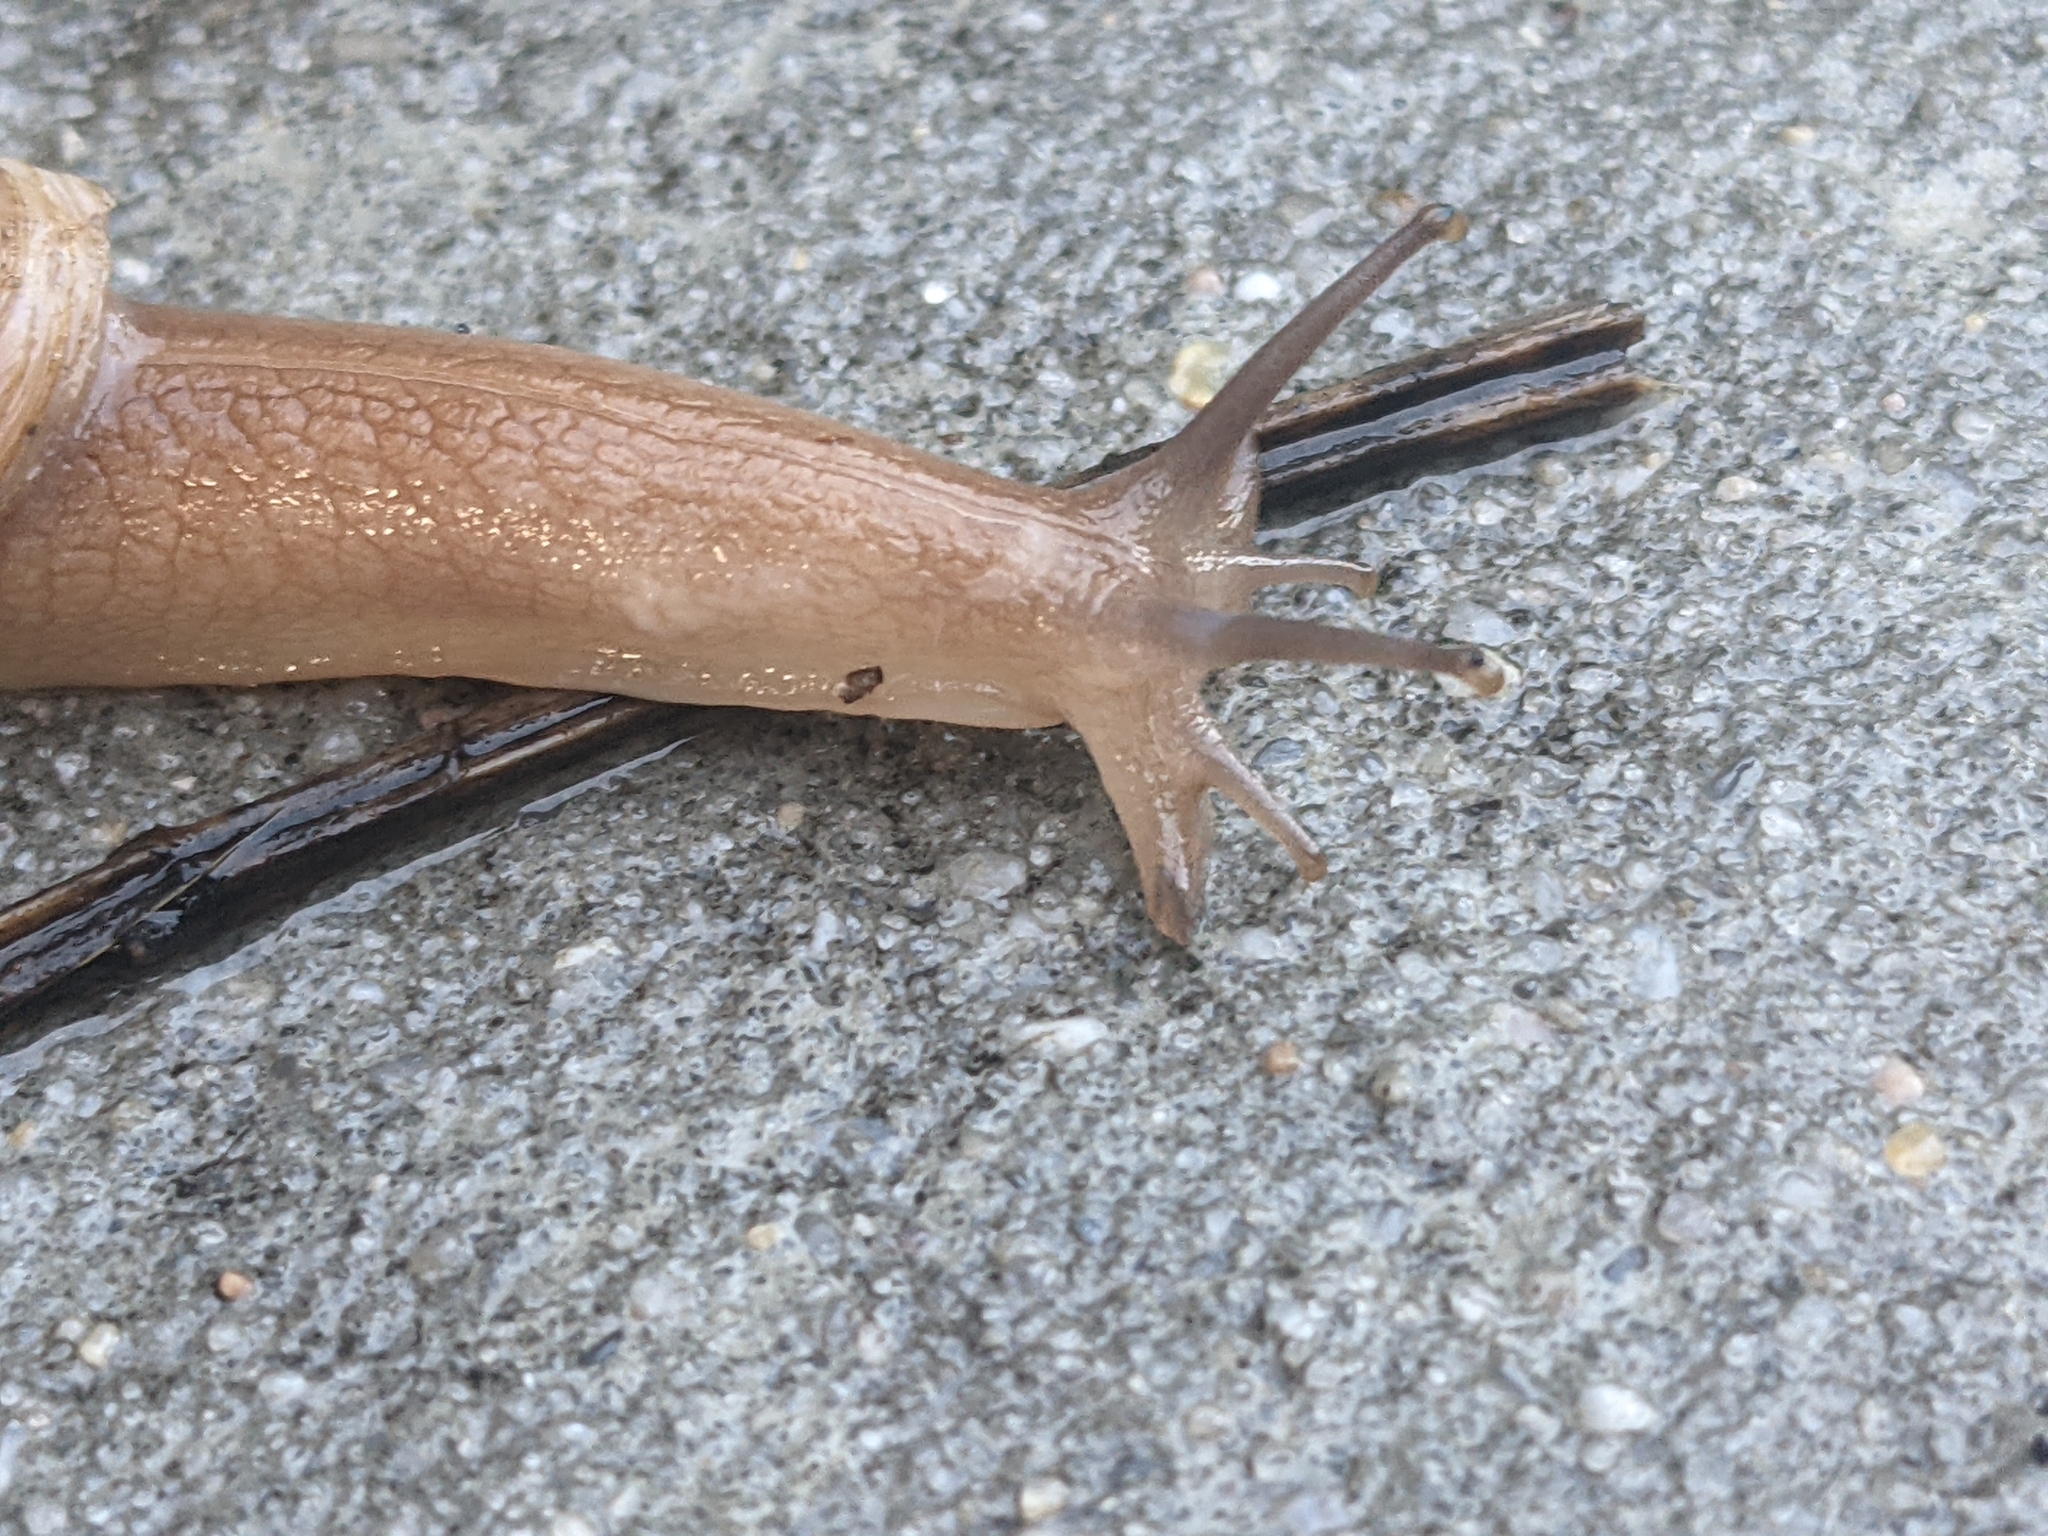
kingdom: Animalia
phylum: Mollusca
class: Gastropoda
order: Stylommatophora
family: Spiraxidae
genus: Euglandina
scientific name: Euglandina rosea
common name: Rosy wolfsnail
